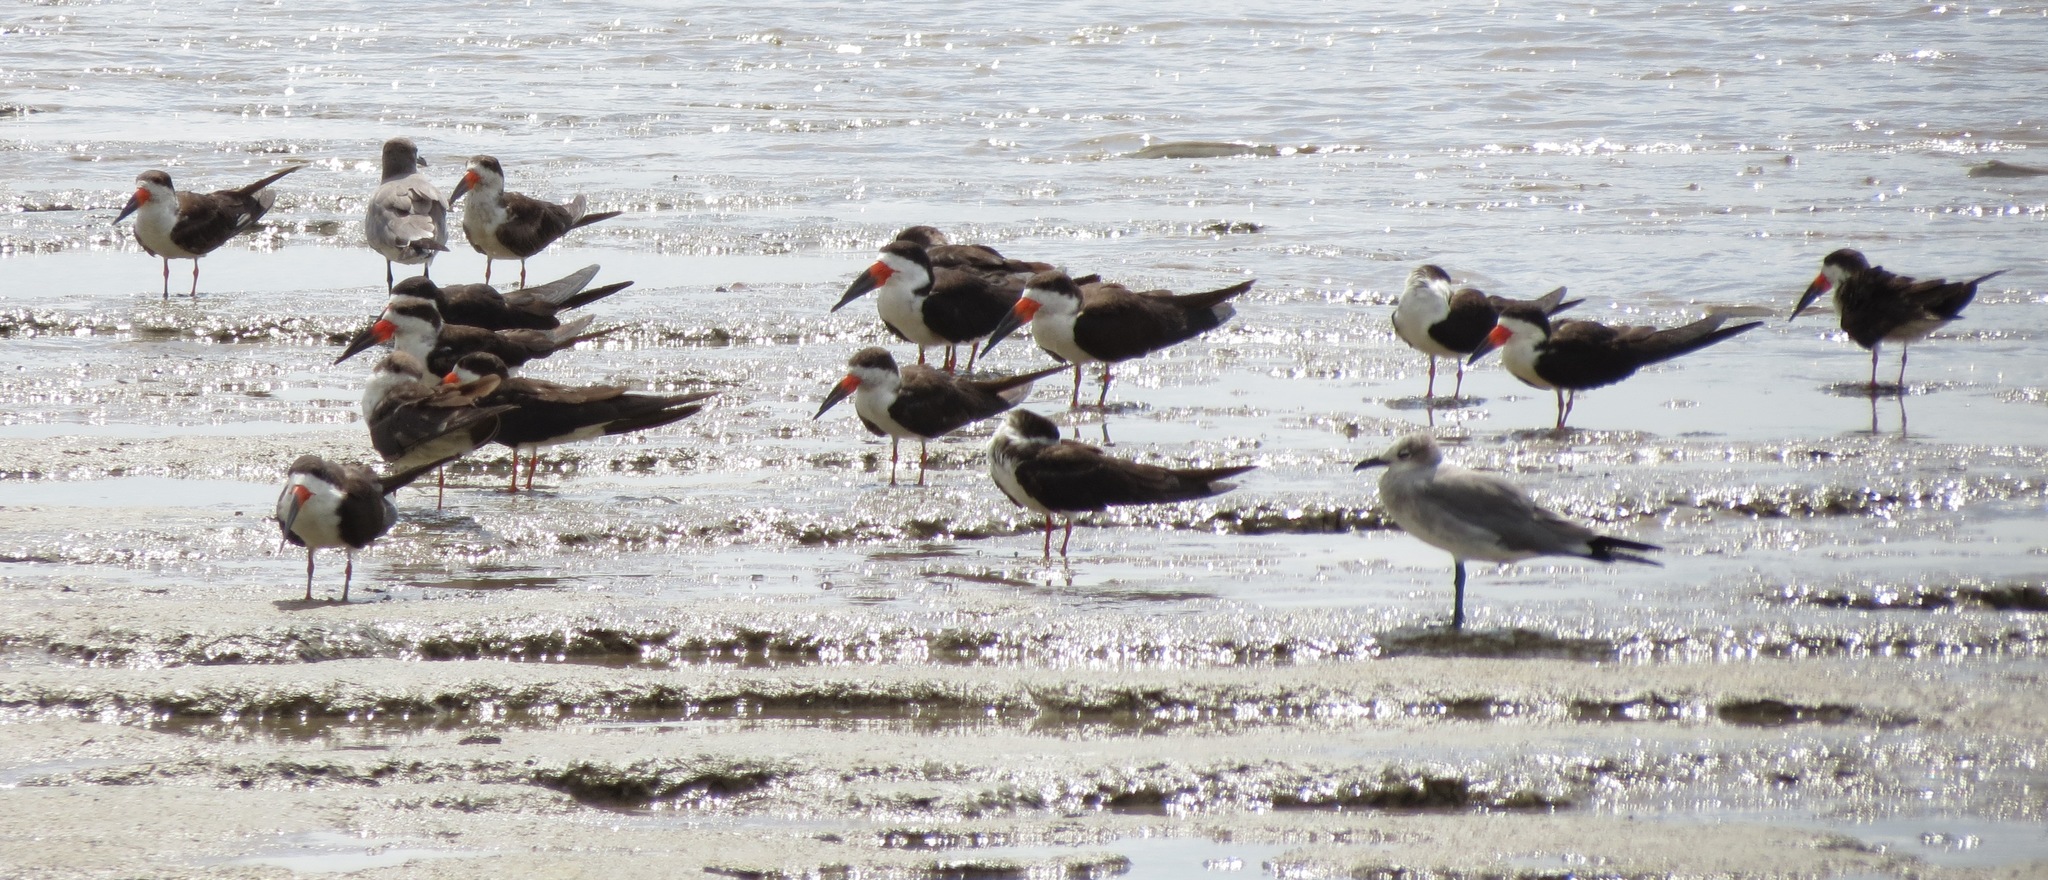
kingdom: Animalia
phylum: Chordata
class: Aves
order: Charadriiformes
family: Laridae
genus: Rynchops
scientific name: Rynchops niger
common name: Black skimmer
